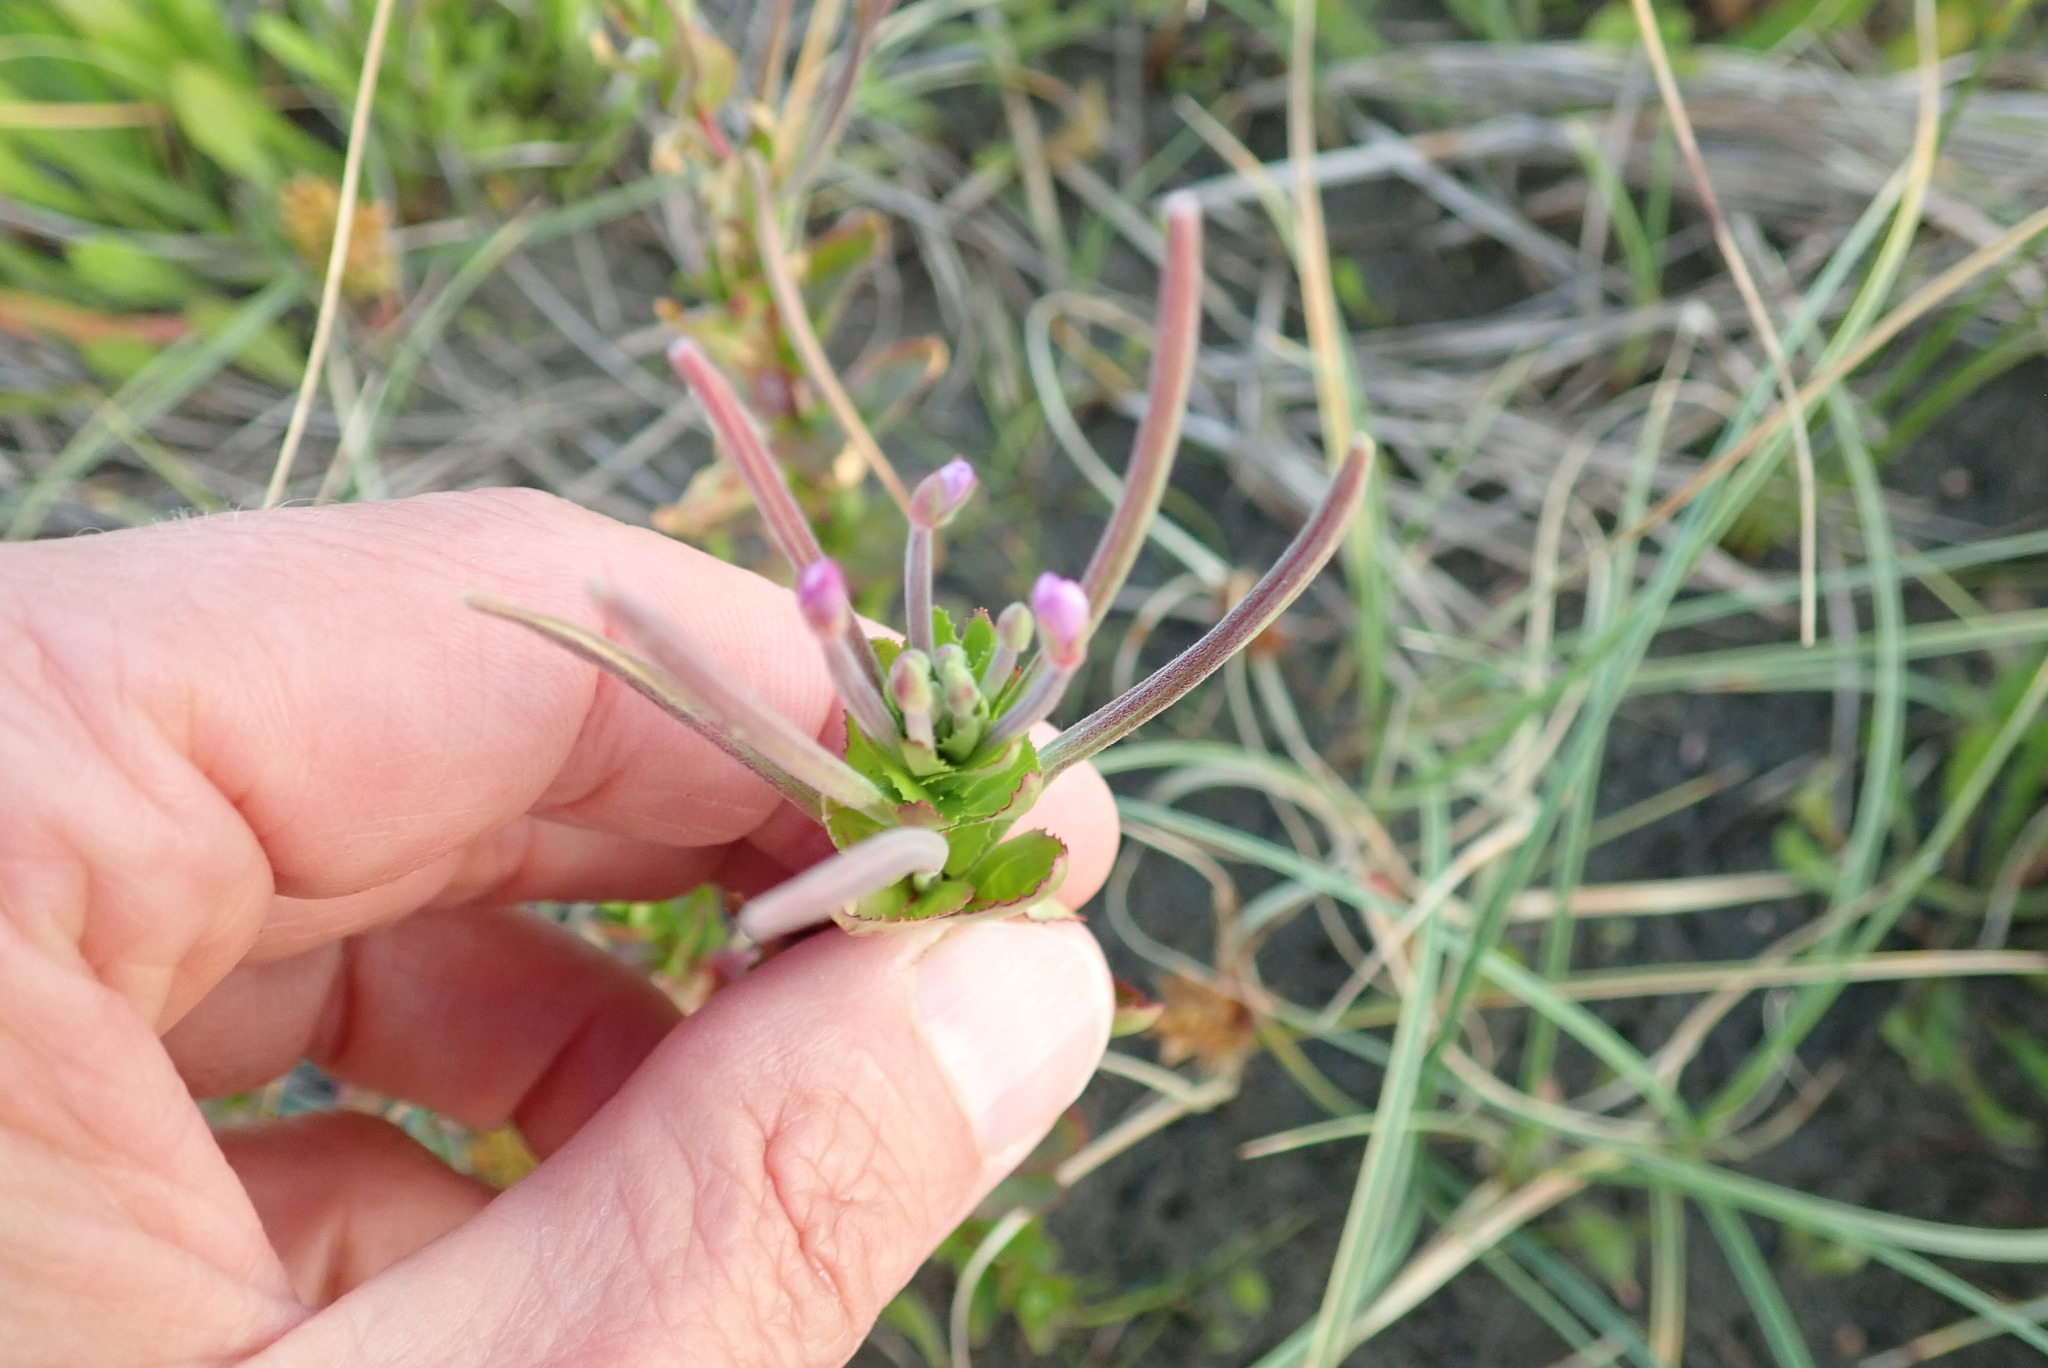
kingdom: Plantae
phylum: Tracheophyta
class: Magnoliopsida
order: Myrtales
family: Onagraceae
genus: Epilobium
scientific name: Epilobium billardiereanum
